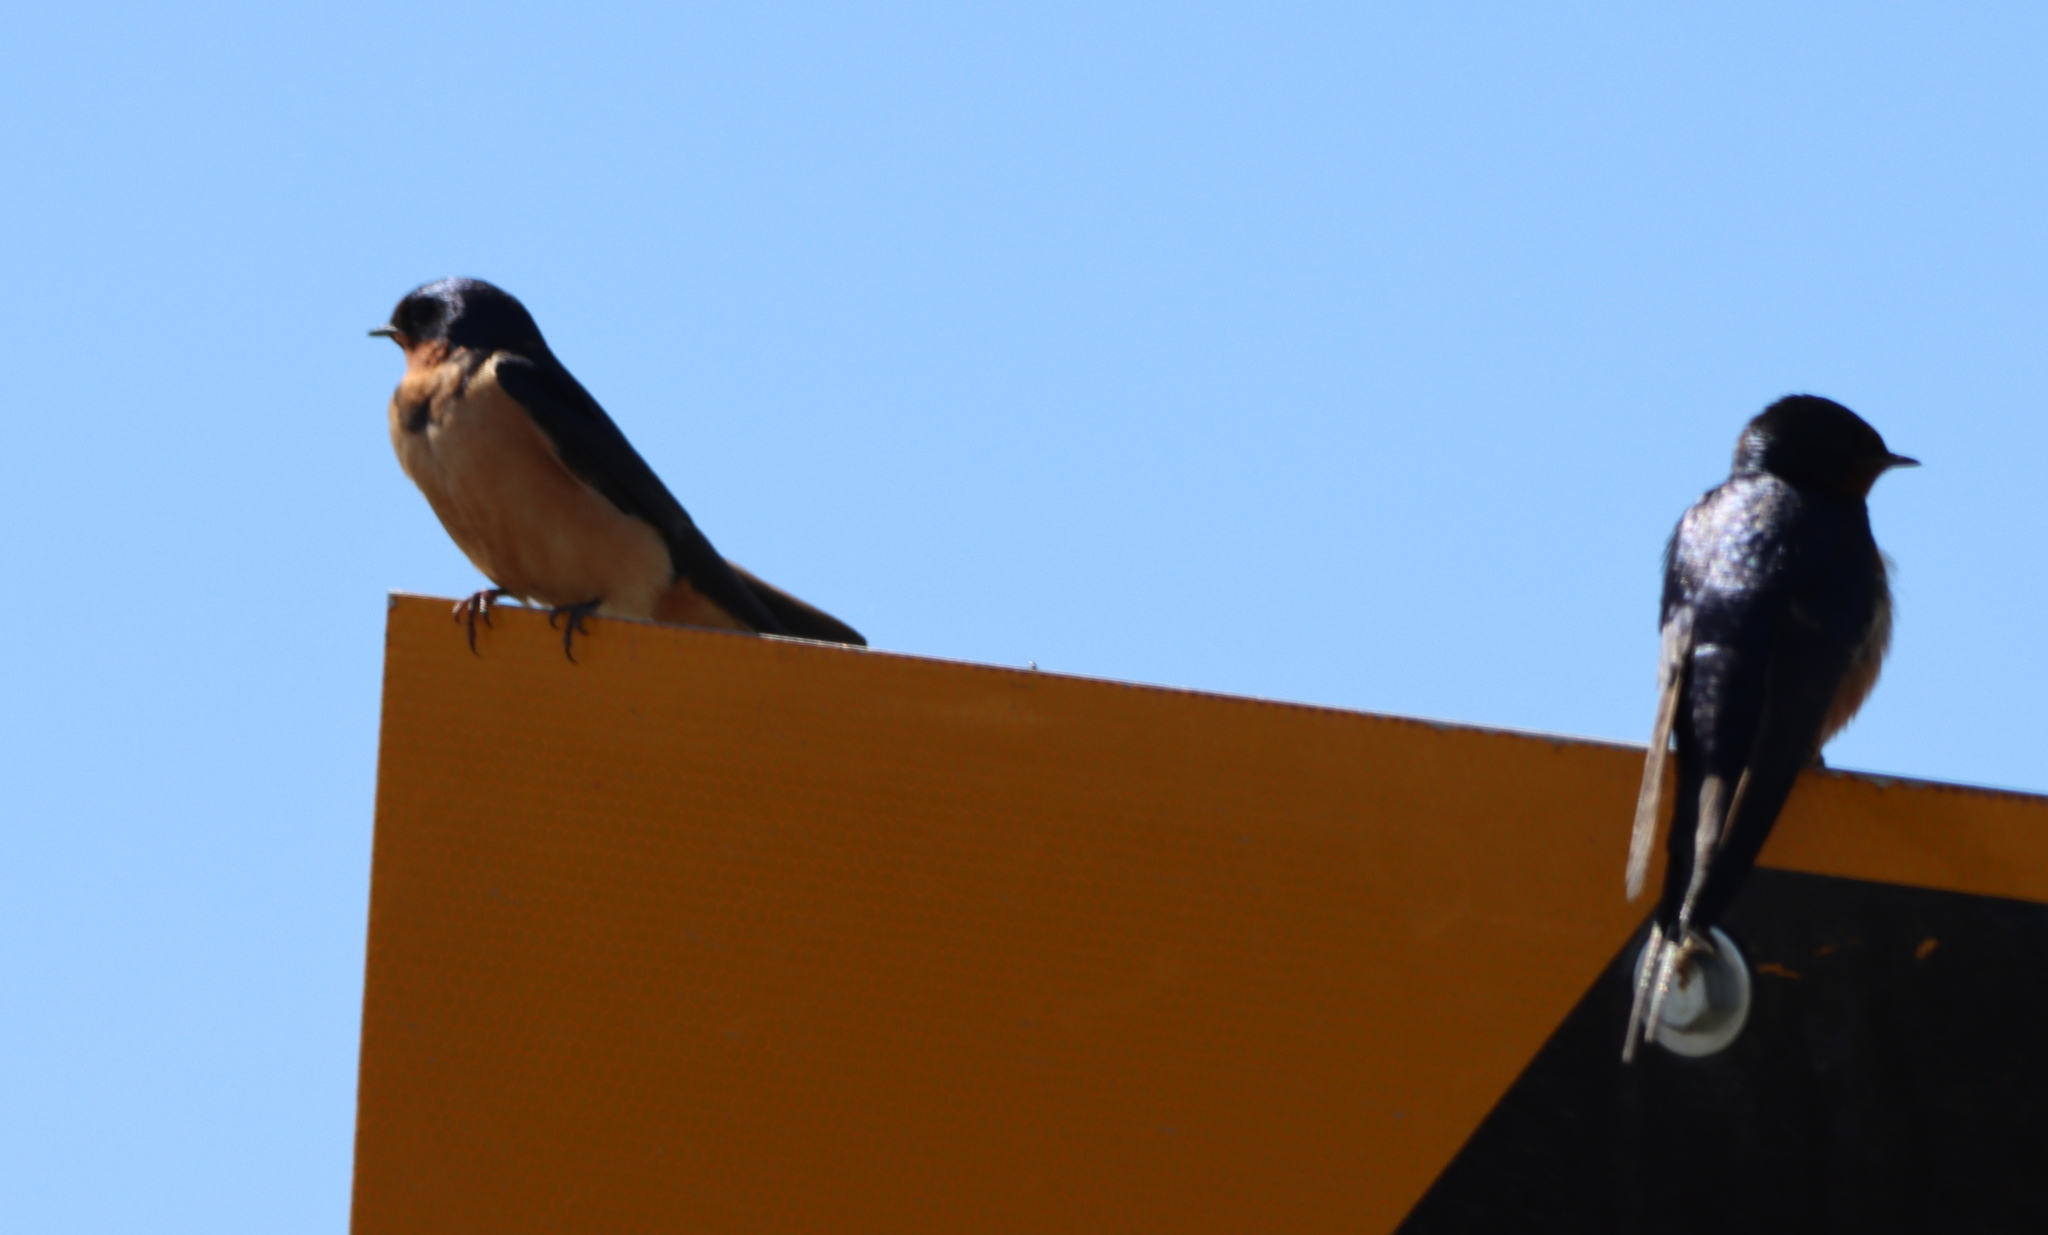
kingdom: Animalia
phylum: Chordata
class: Aves
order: Passeriformes
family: Hirundinidae
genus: Hirundo
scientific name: Hirundo rustica
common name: Barn swallow
